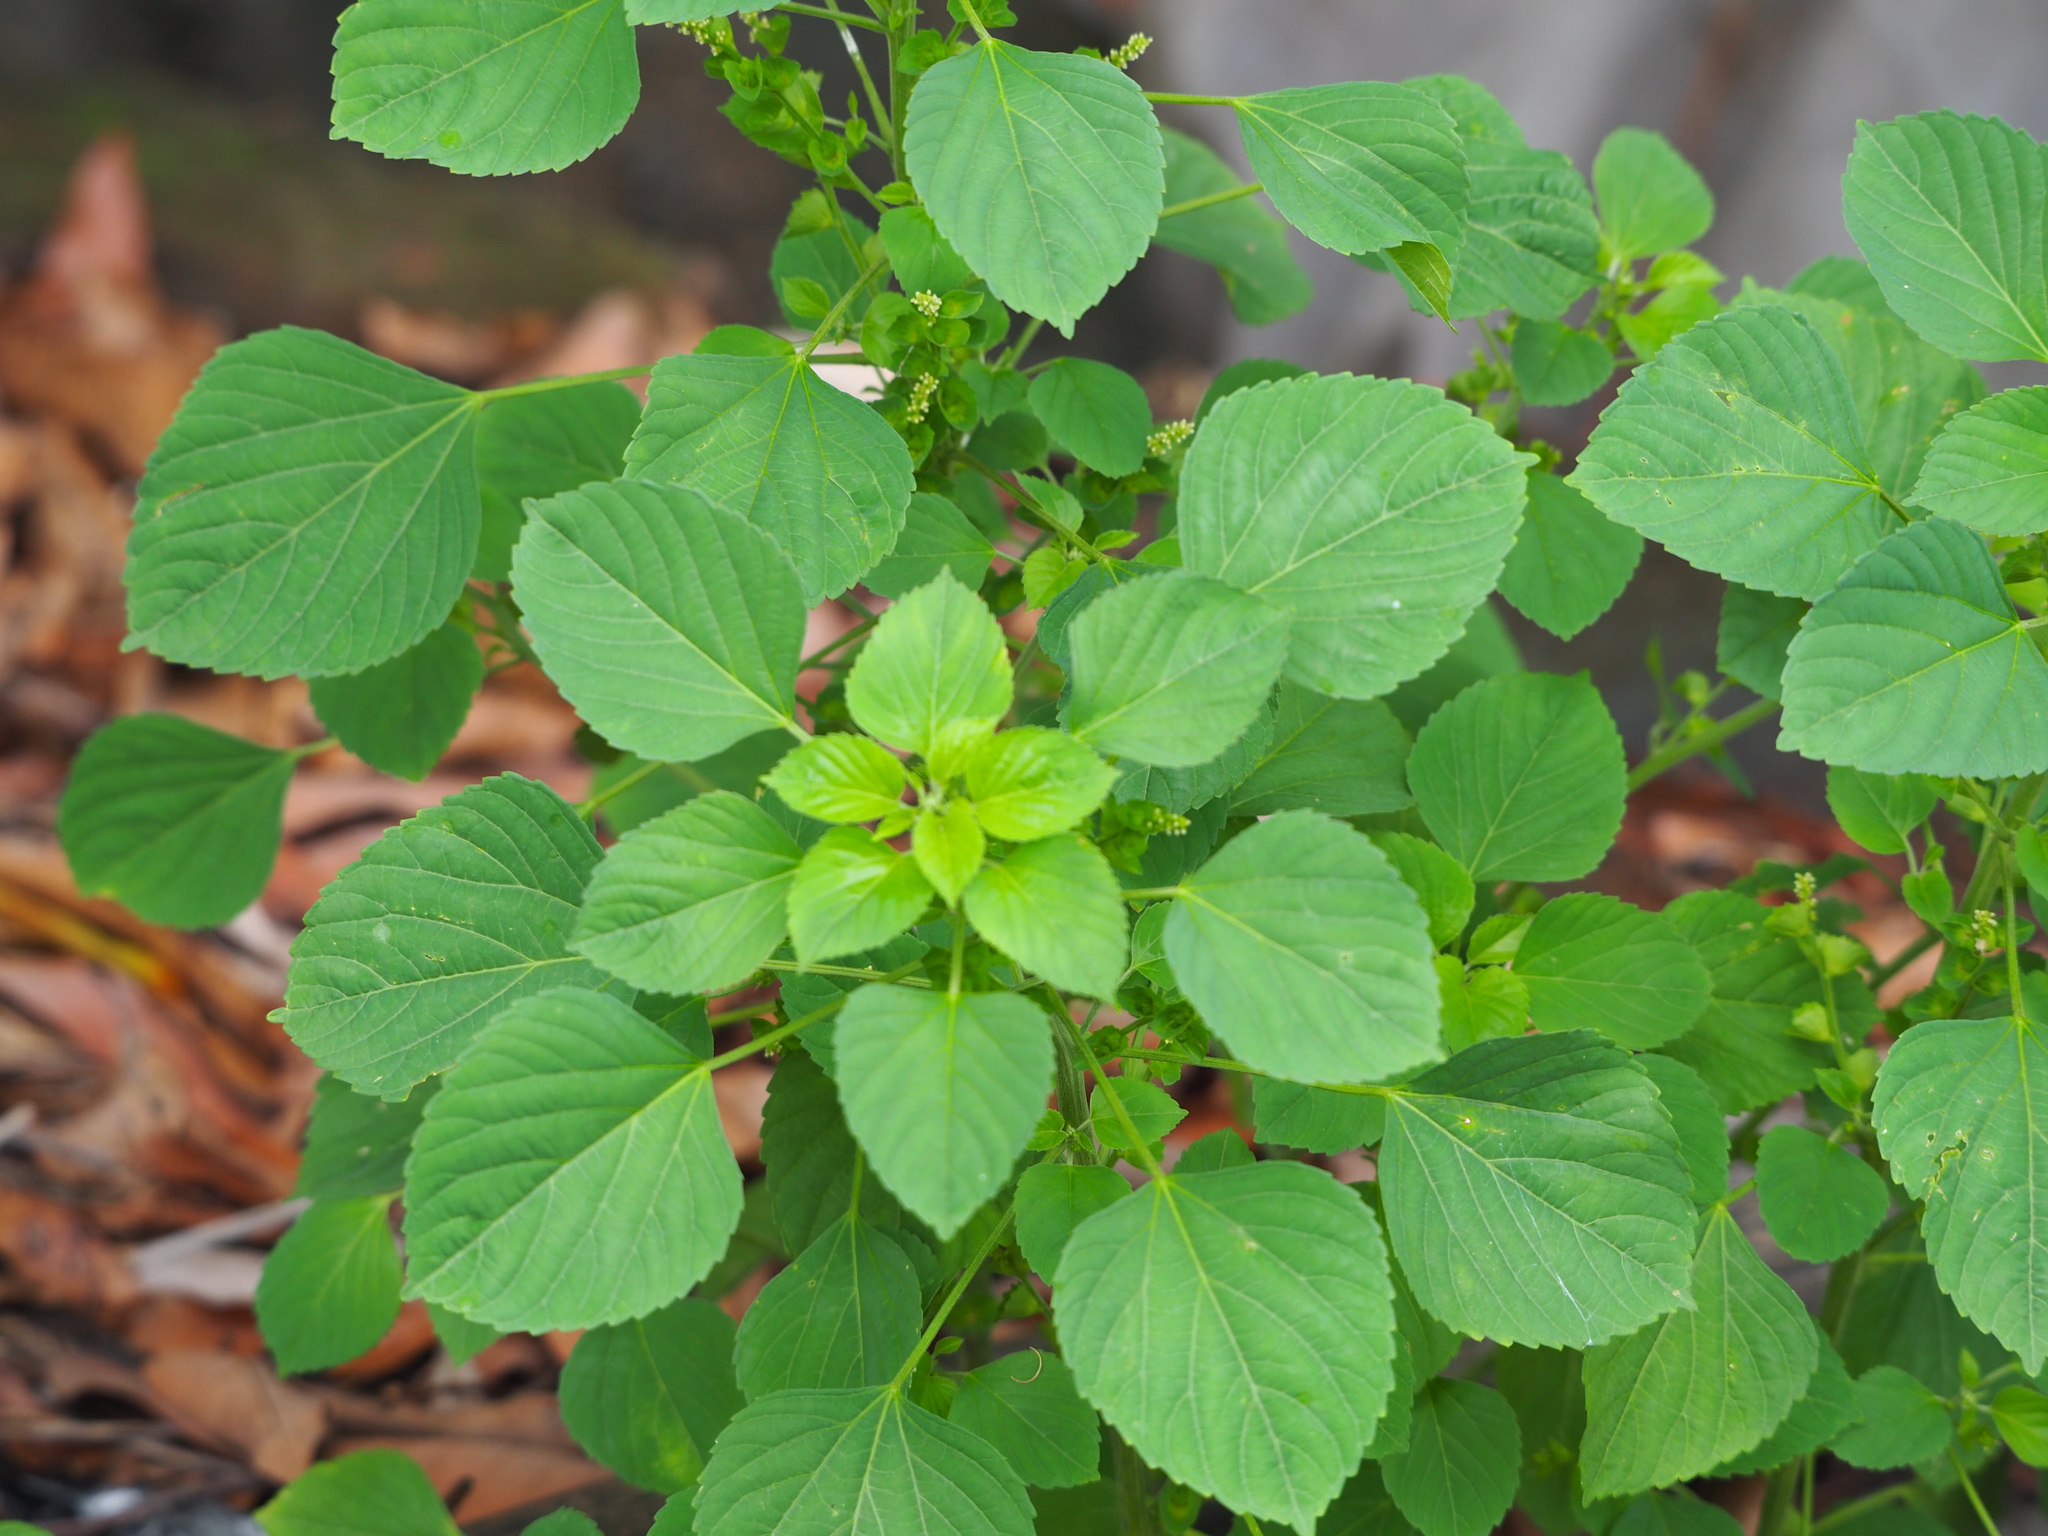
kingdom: Plantae
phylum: Tracheophyta
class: Magnoliopsida
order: Malpighiales
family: Euphorbiaceae
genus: Acalypha
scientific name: Acalypha indica
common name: Indian acalypha
